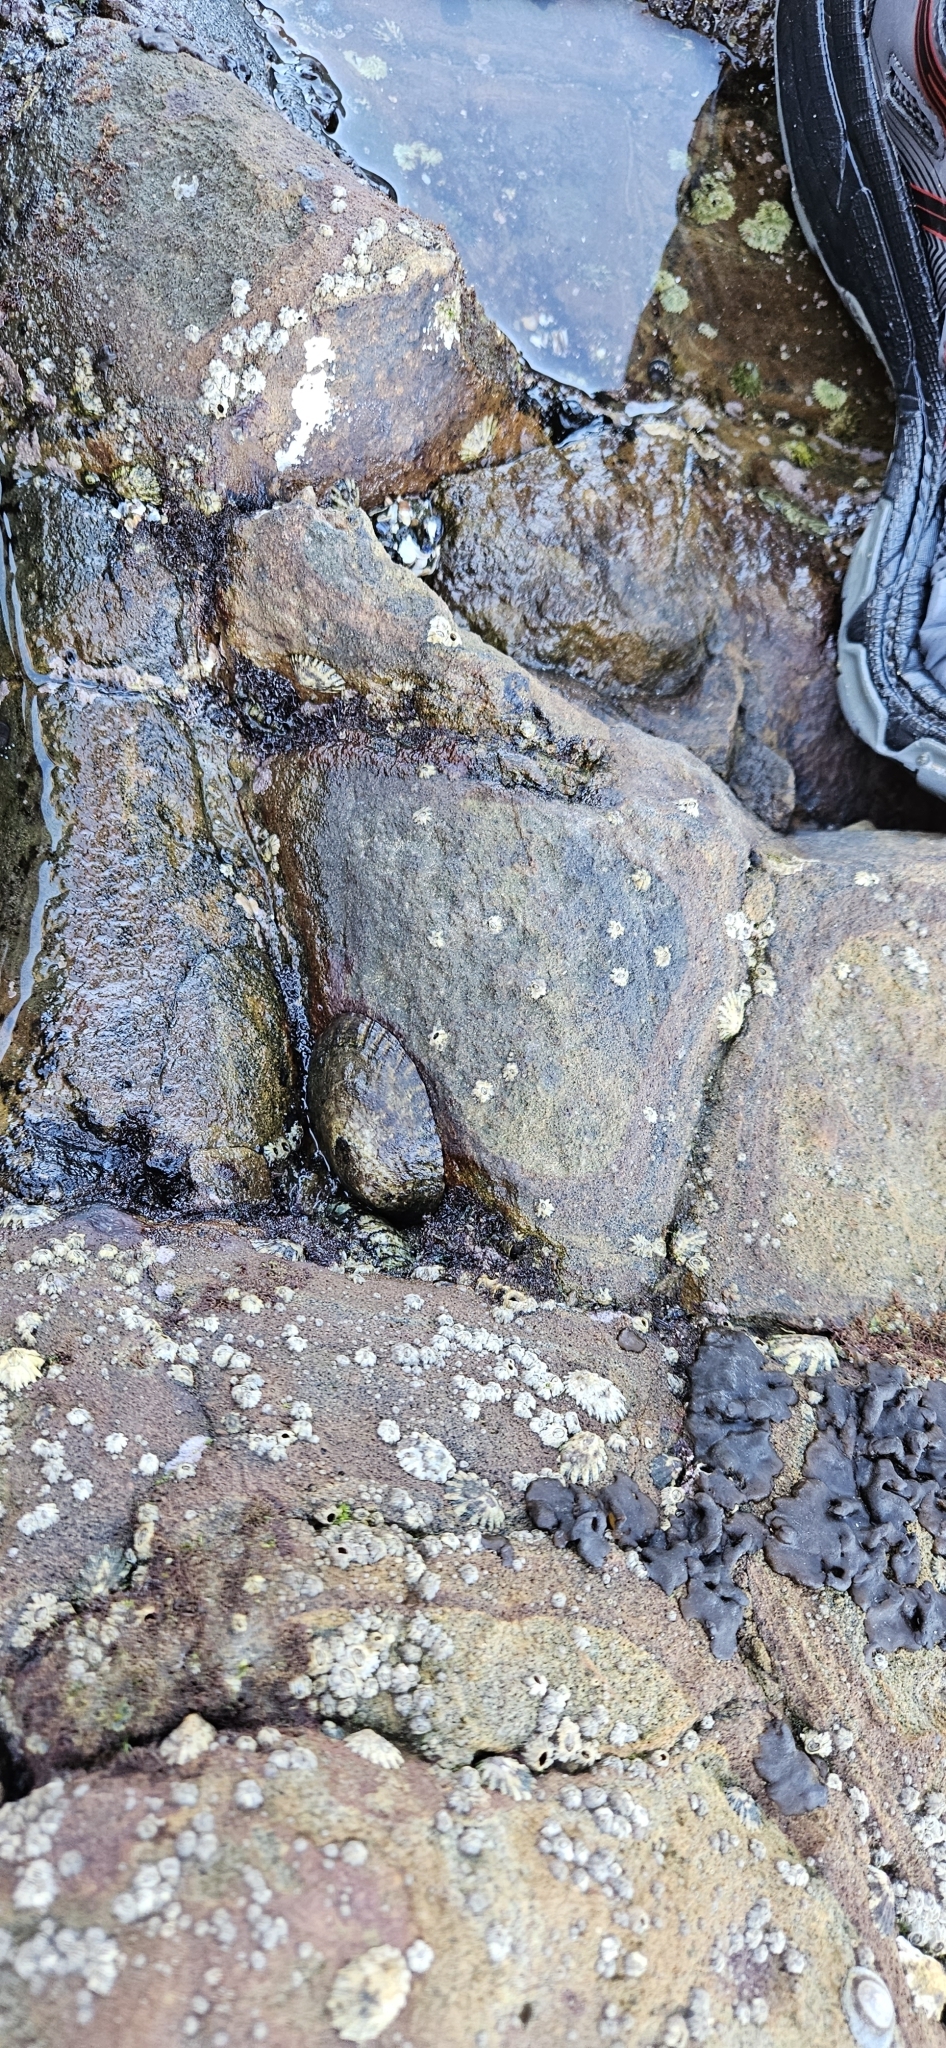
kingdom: Animalia
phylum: Mollusca
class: Gastropoda
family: Lottiidae
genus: Lottia
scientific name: Lottia gigantea
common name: Owl limpet
